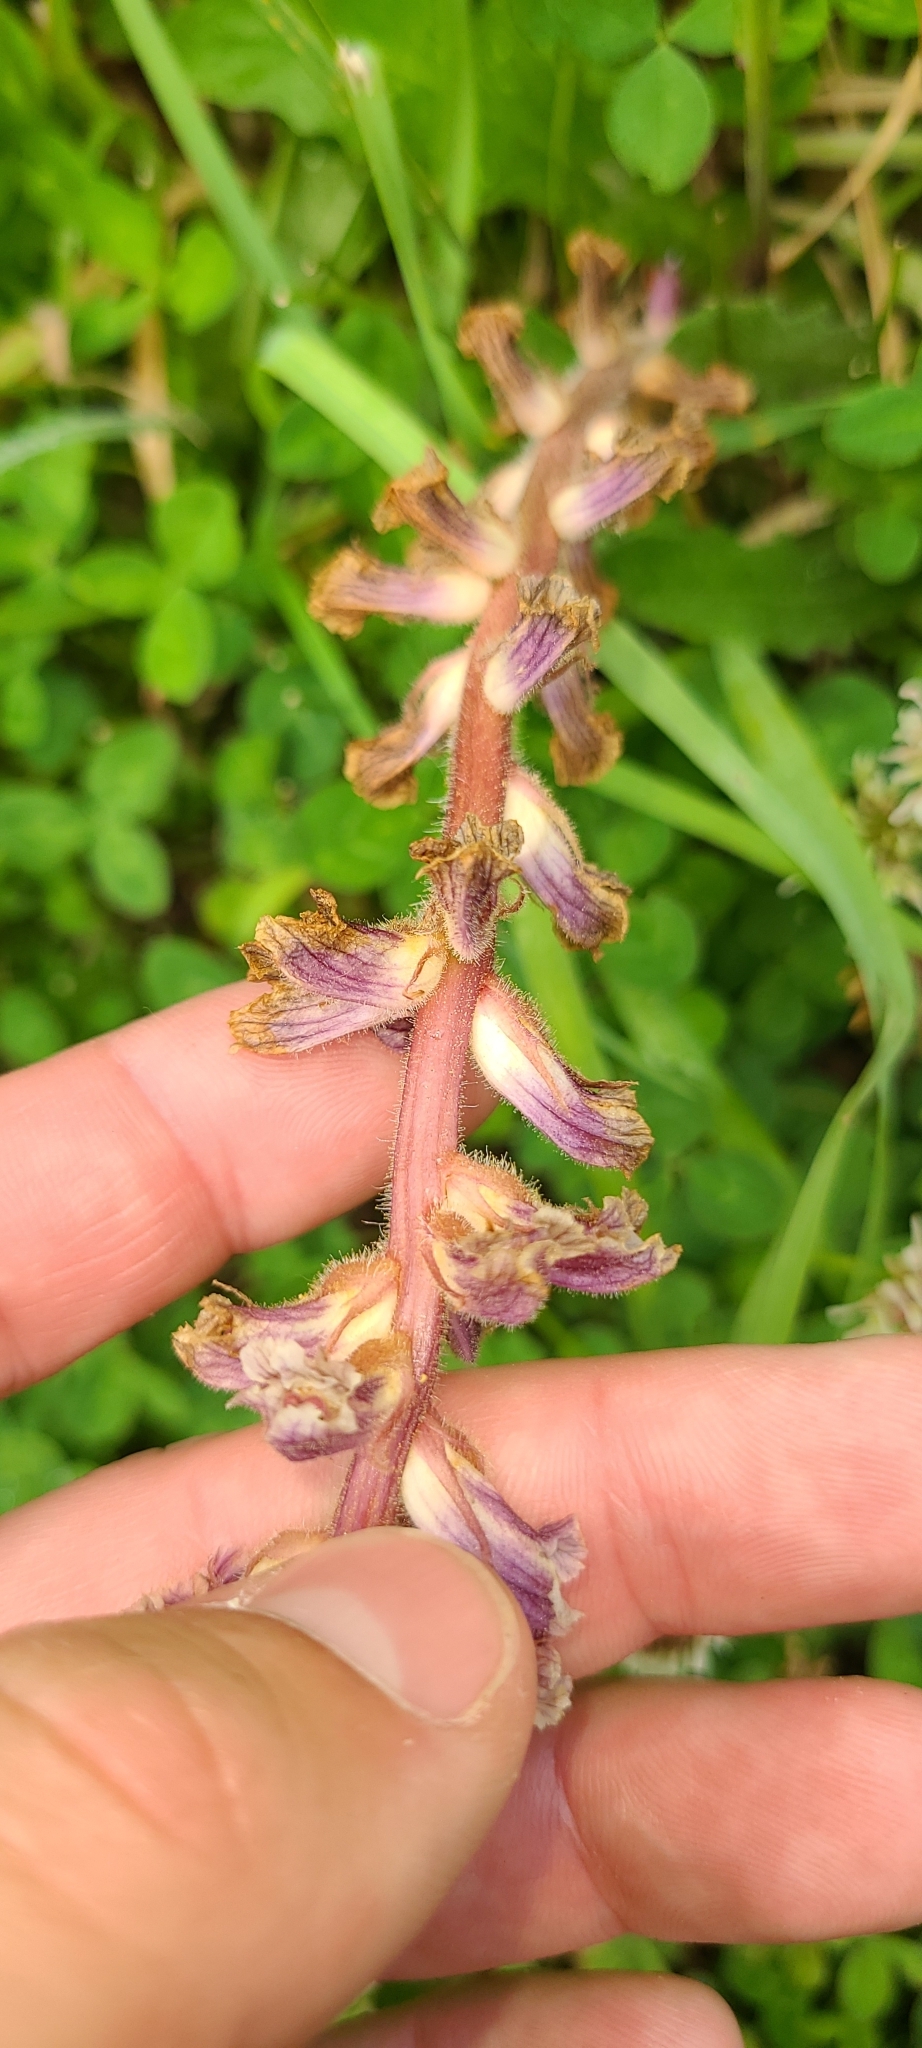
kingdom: Plantae
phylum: Tracheophyta
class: Magnoliopsida
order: Lamiales
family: Orobanchaceae
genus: Orobanche
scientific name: Orobanche minor
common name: Common broomrape
